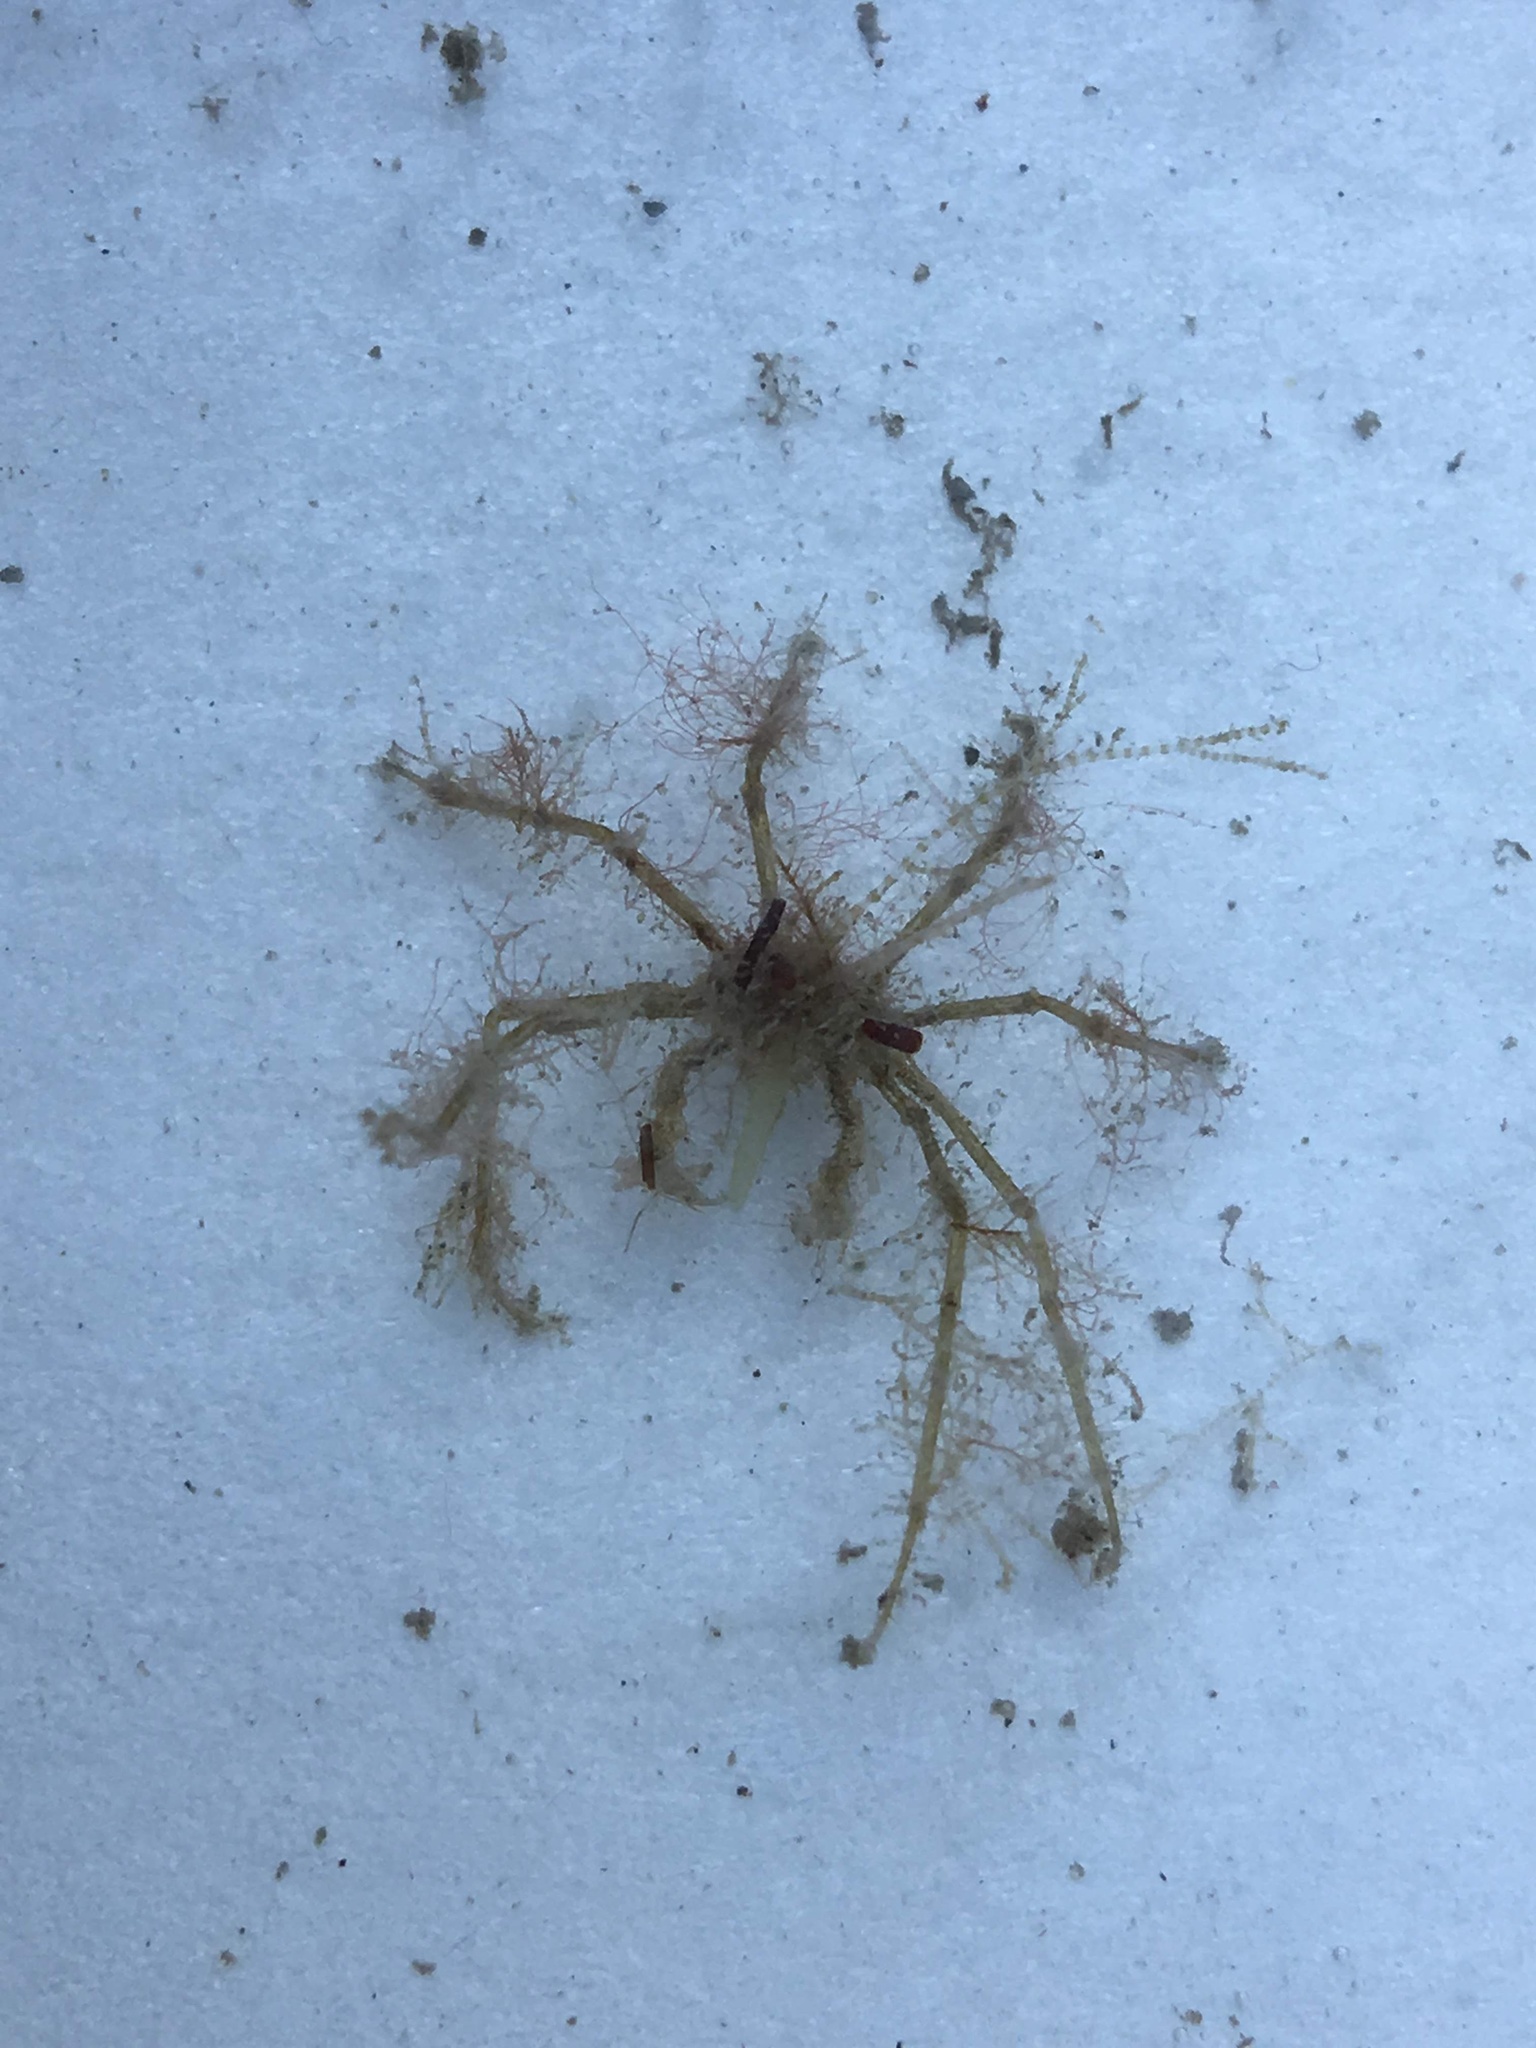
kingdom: Animalia
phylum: Arthropoda
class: Malacostraca
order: Decapoda
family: Inachidae
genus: Macropodia
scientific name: Macropodia longirostris
